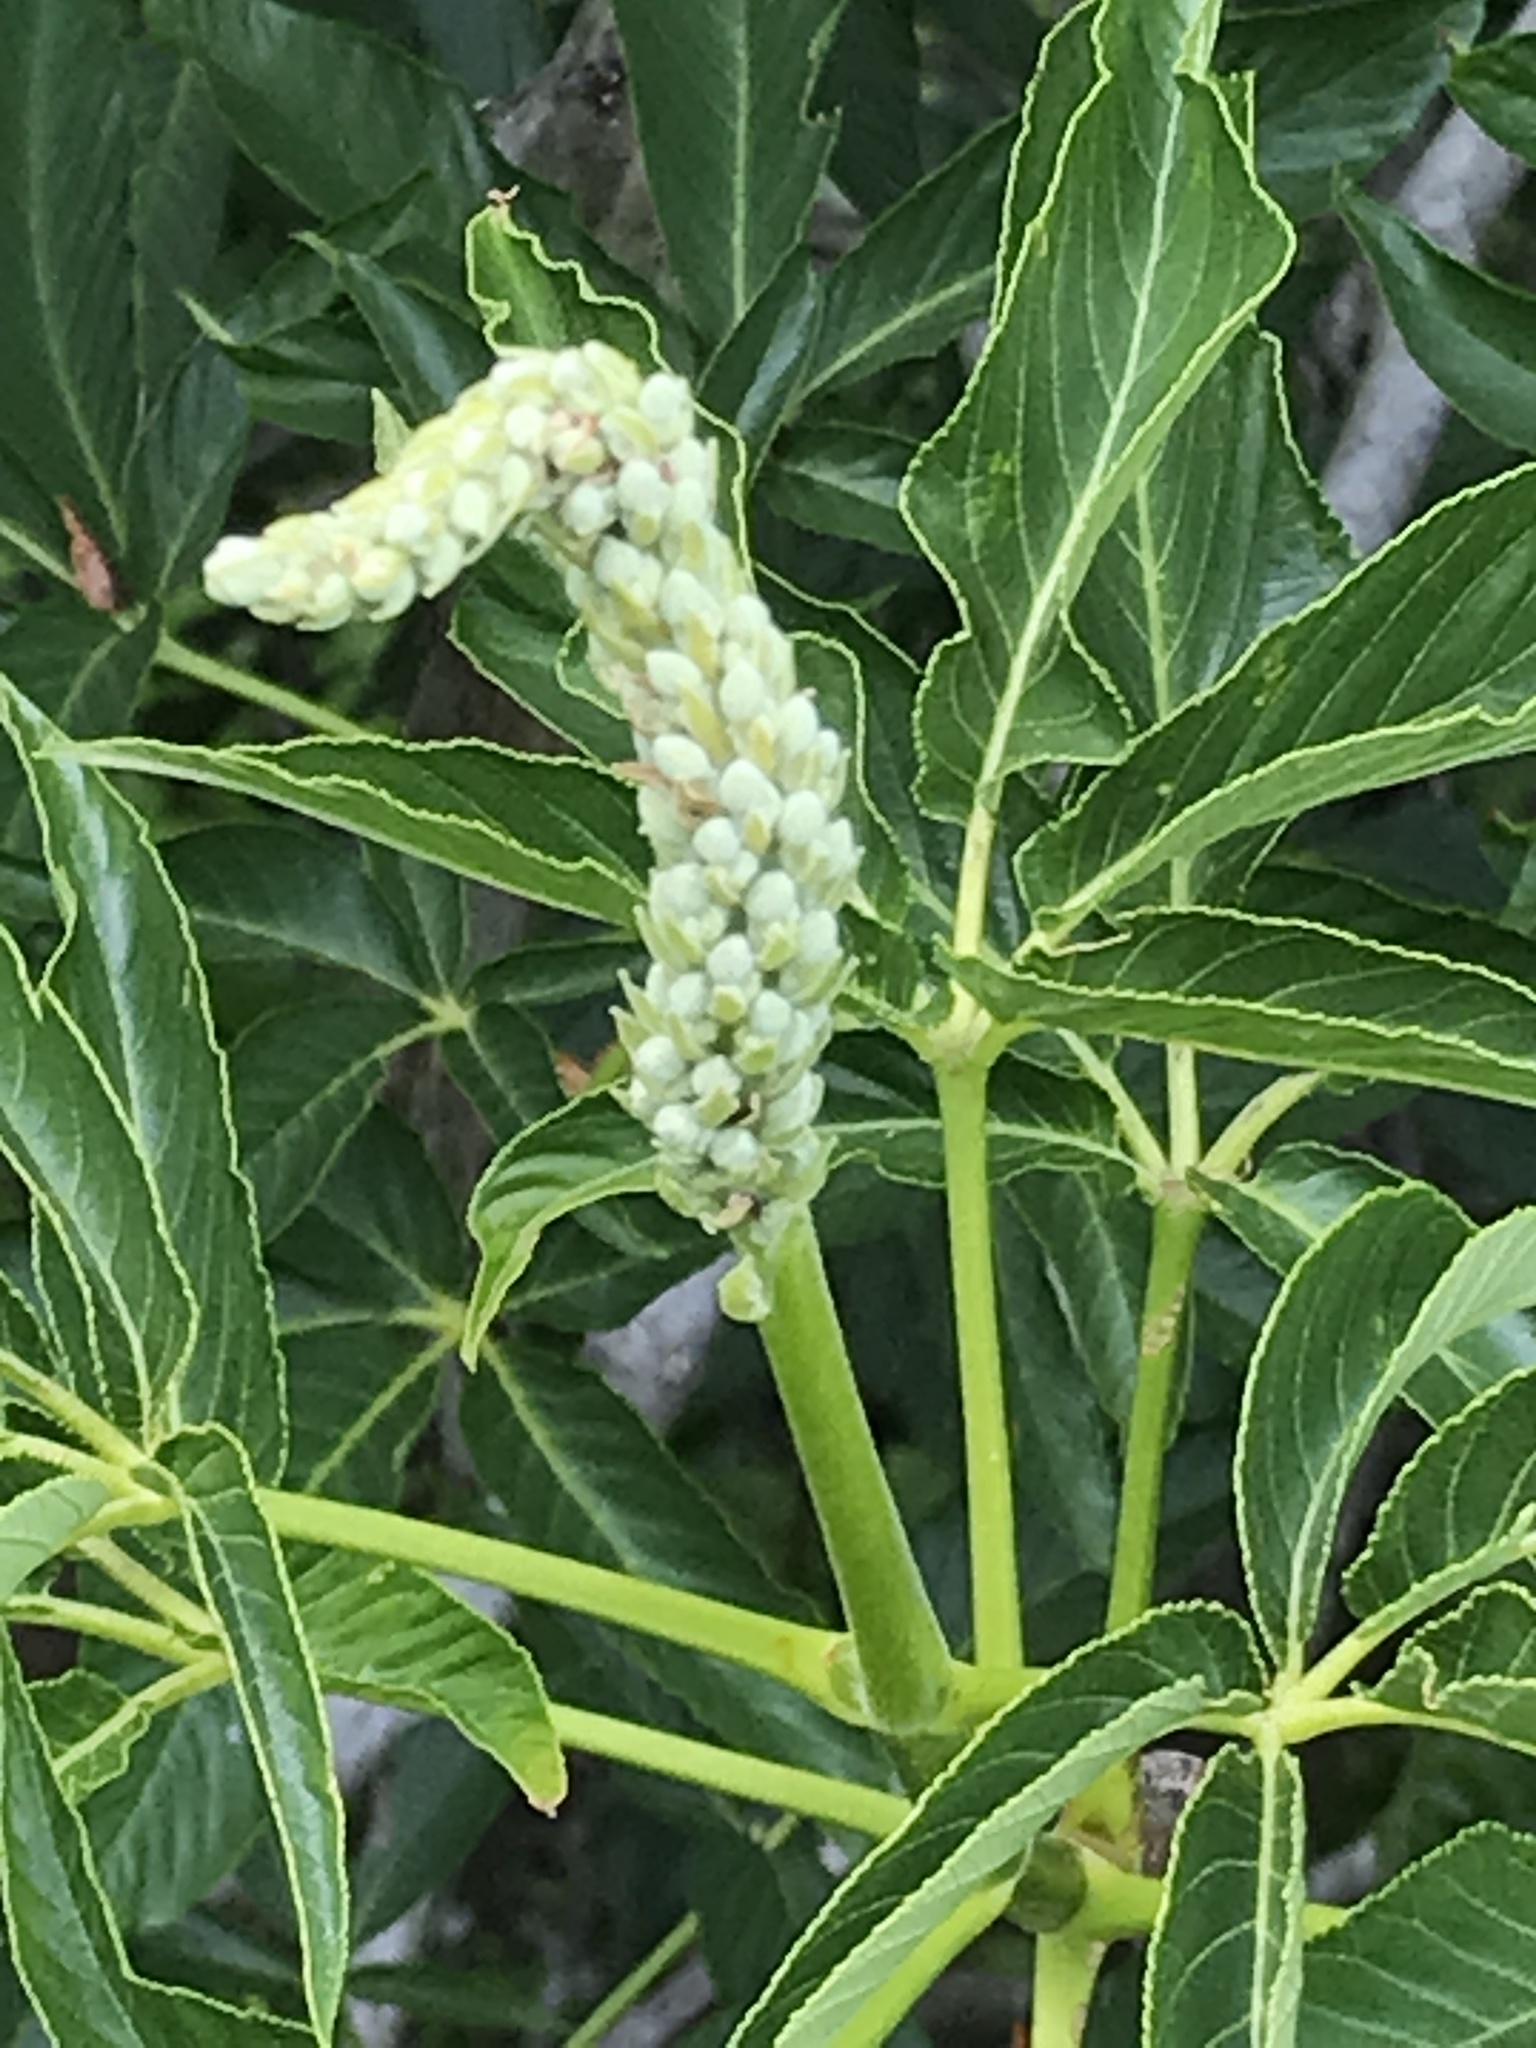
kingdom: Plantae
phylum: Tracheophyta
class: Magnoliopsida
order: Sapindales
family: Sapindaceae
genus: Aesculus
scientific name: Aesculus californica
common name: California buckeye
